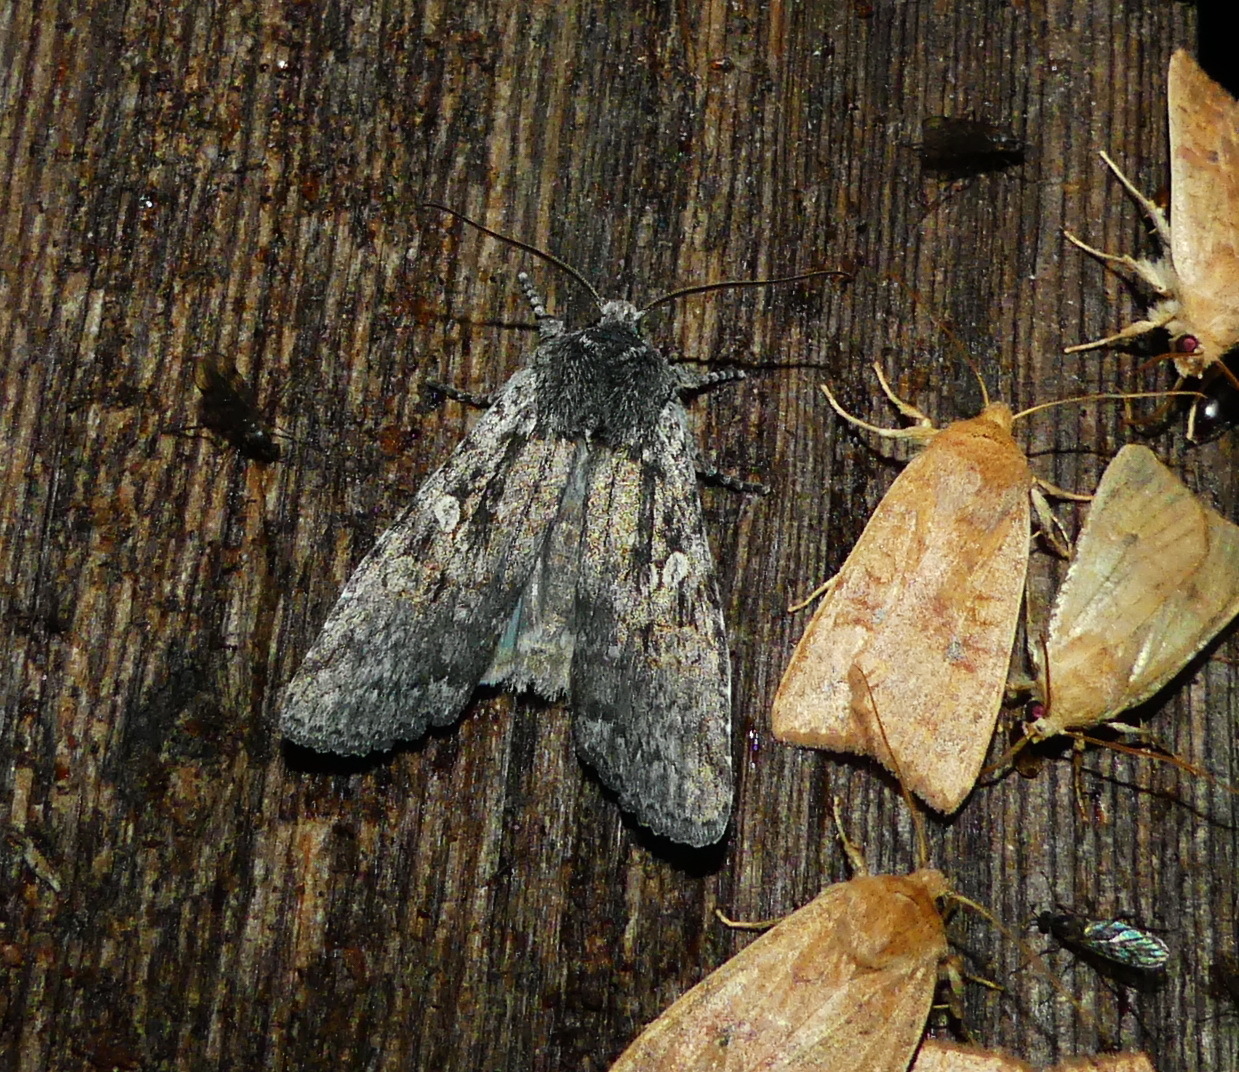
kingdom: Animalia
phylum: Arthropoda
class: Insecta
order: Lepidoptera
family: Noctuidae
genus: Lithophane
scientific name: Lithophane laticinerea
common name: Broad ashen pinion
